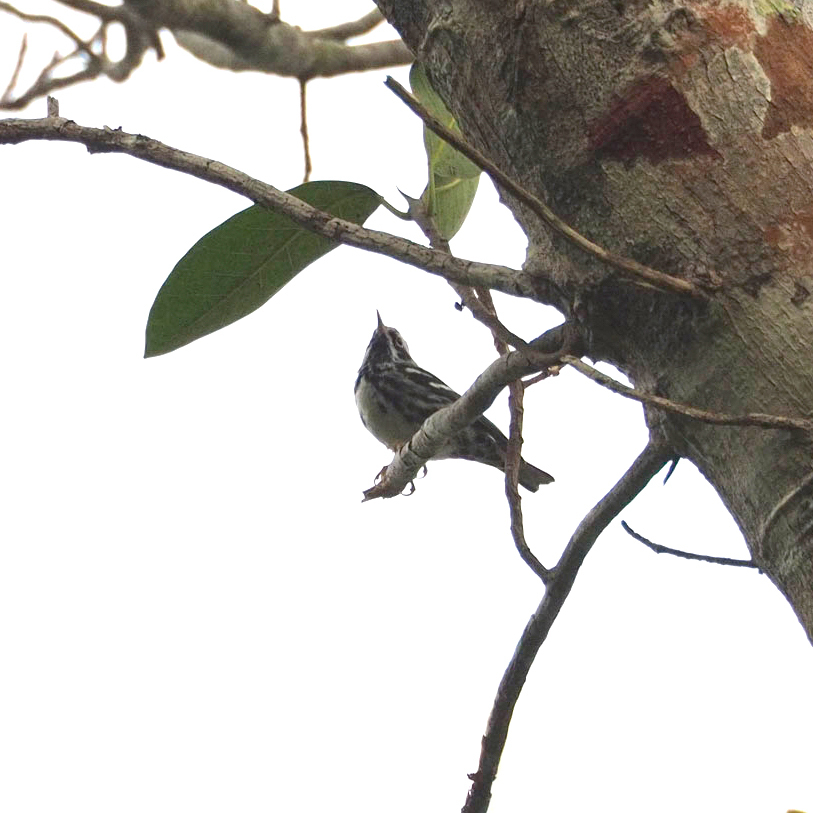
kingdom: Animalia
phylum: Chordata
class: Aves
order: Passeriformes
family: Parulidae
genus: Mniotilta
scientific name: Mniotilta varia
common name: Black-and-white warbler
